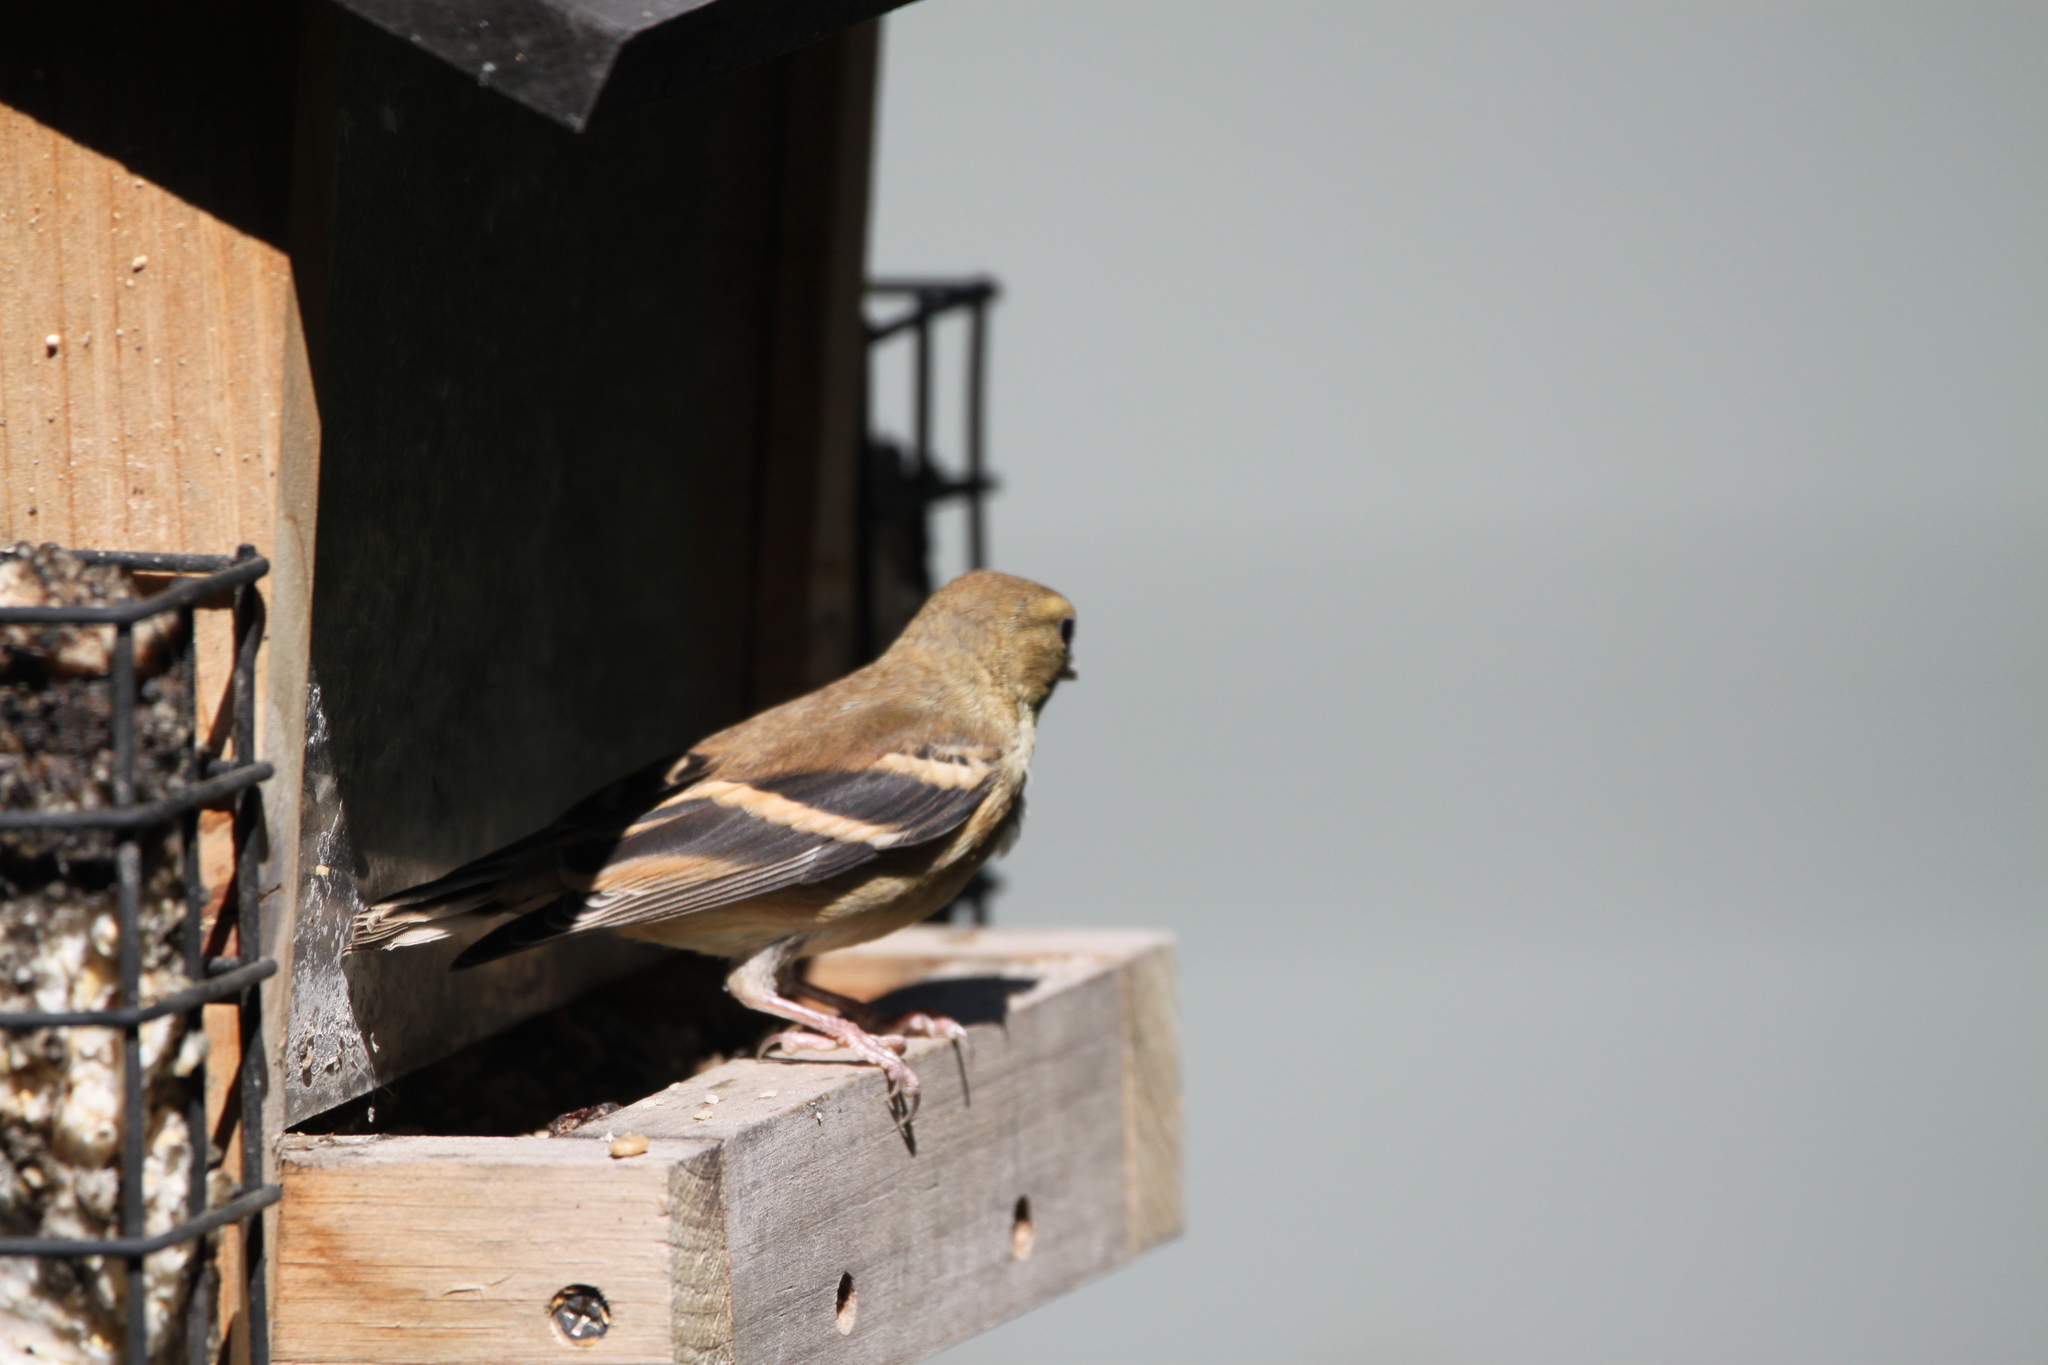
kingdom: Animalia
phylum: Chordata
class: Aves
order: Passeriformes
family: Fringillidae
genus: Spinus
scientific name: Spinus tristis
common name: American goldfinch
